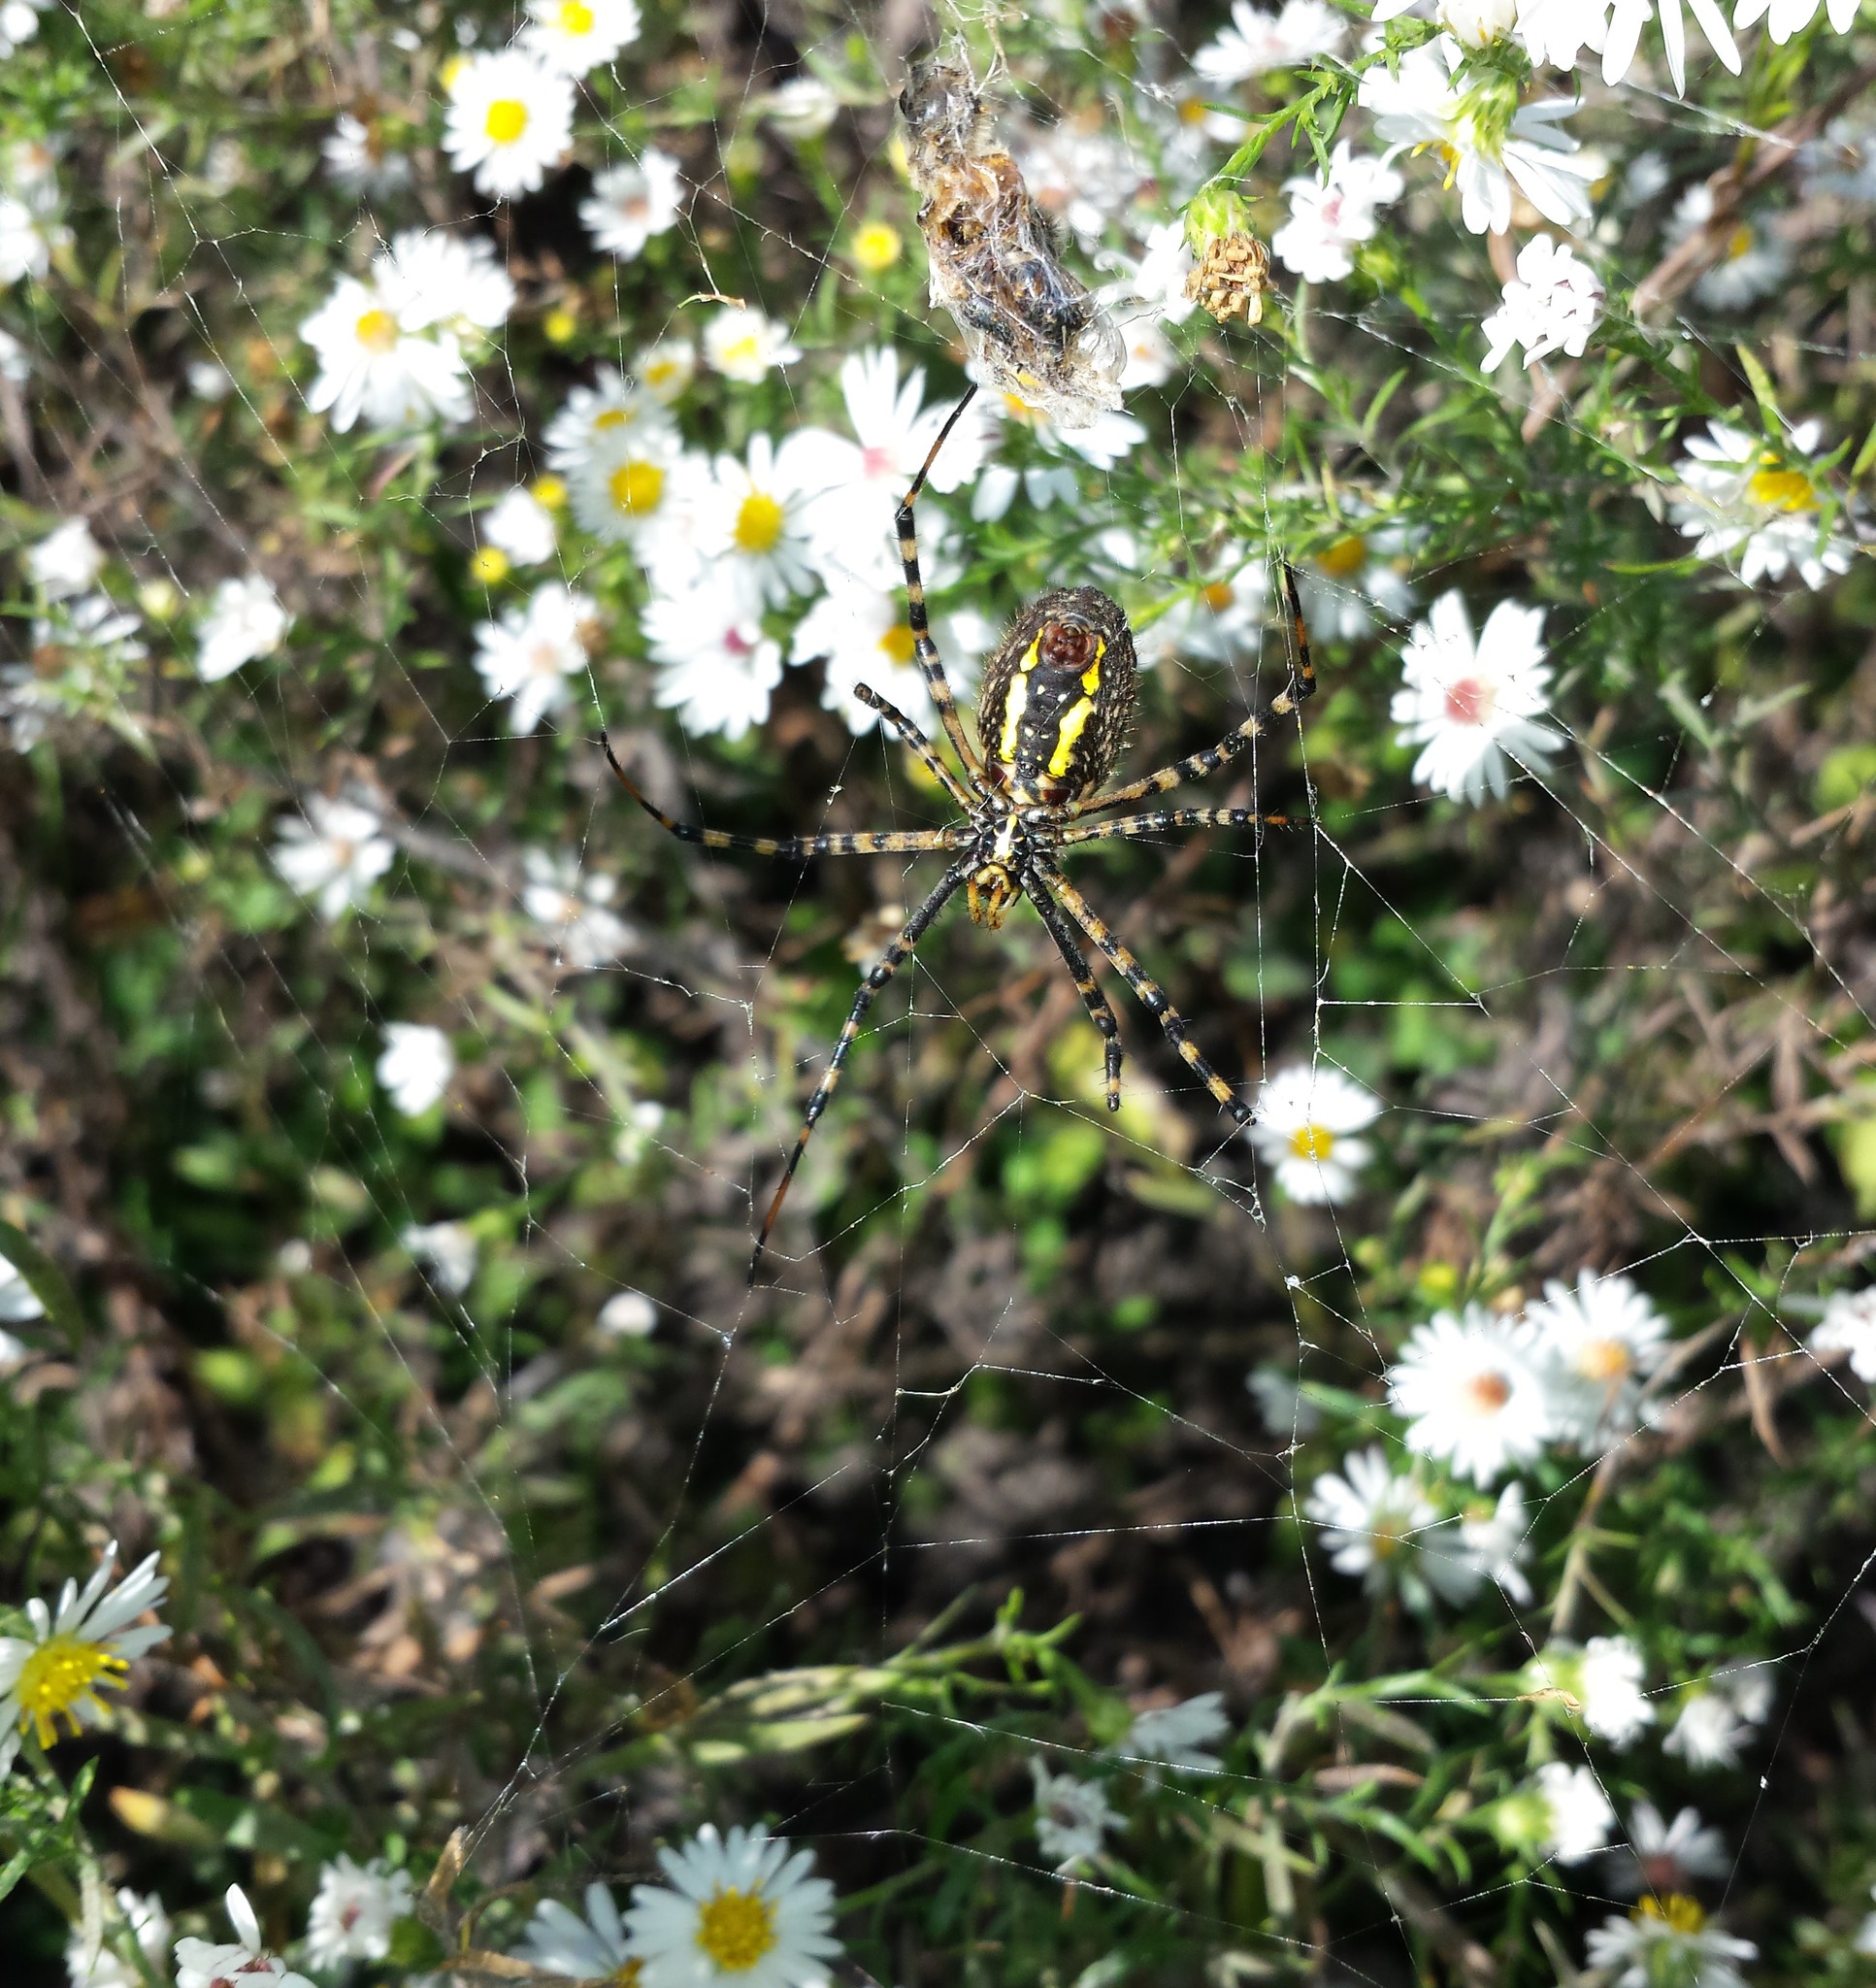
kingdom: Animalia
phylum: Arthropoda
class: Arachnida
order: Araneae
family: Araneidae
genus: Argiope
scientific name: Argiope trifasciata
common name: Banded garden spider
